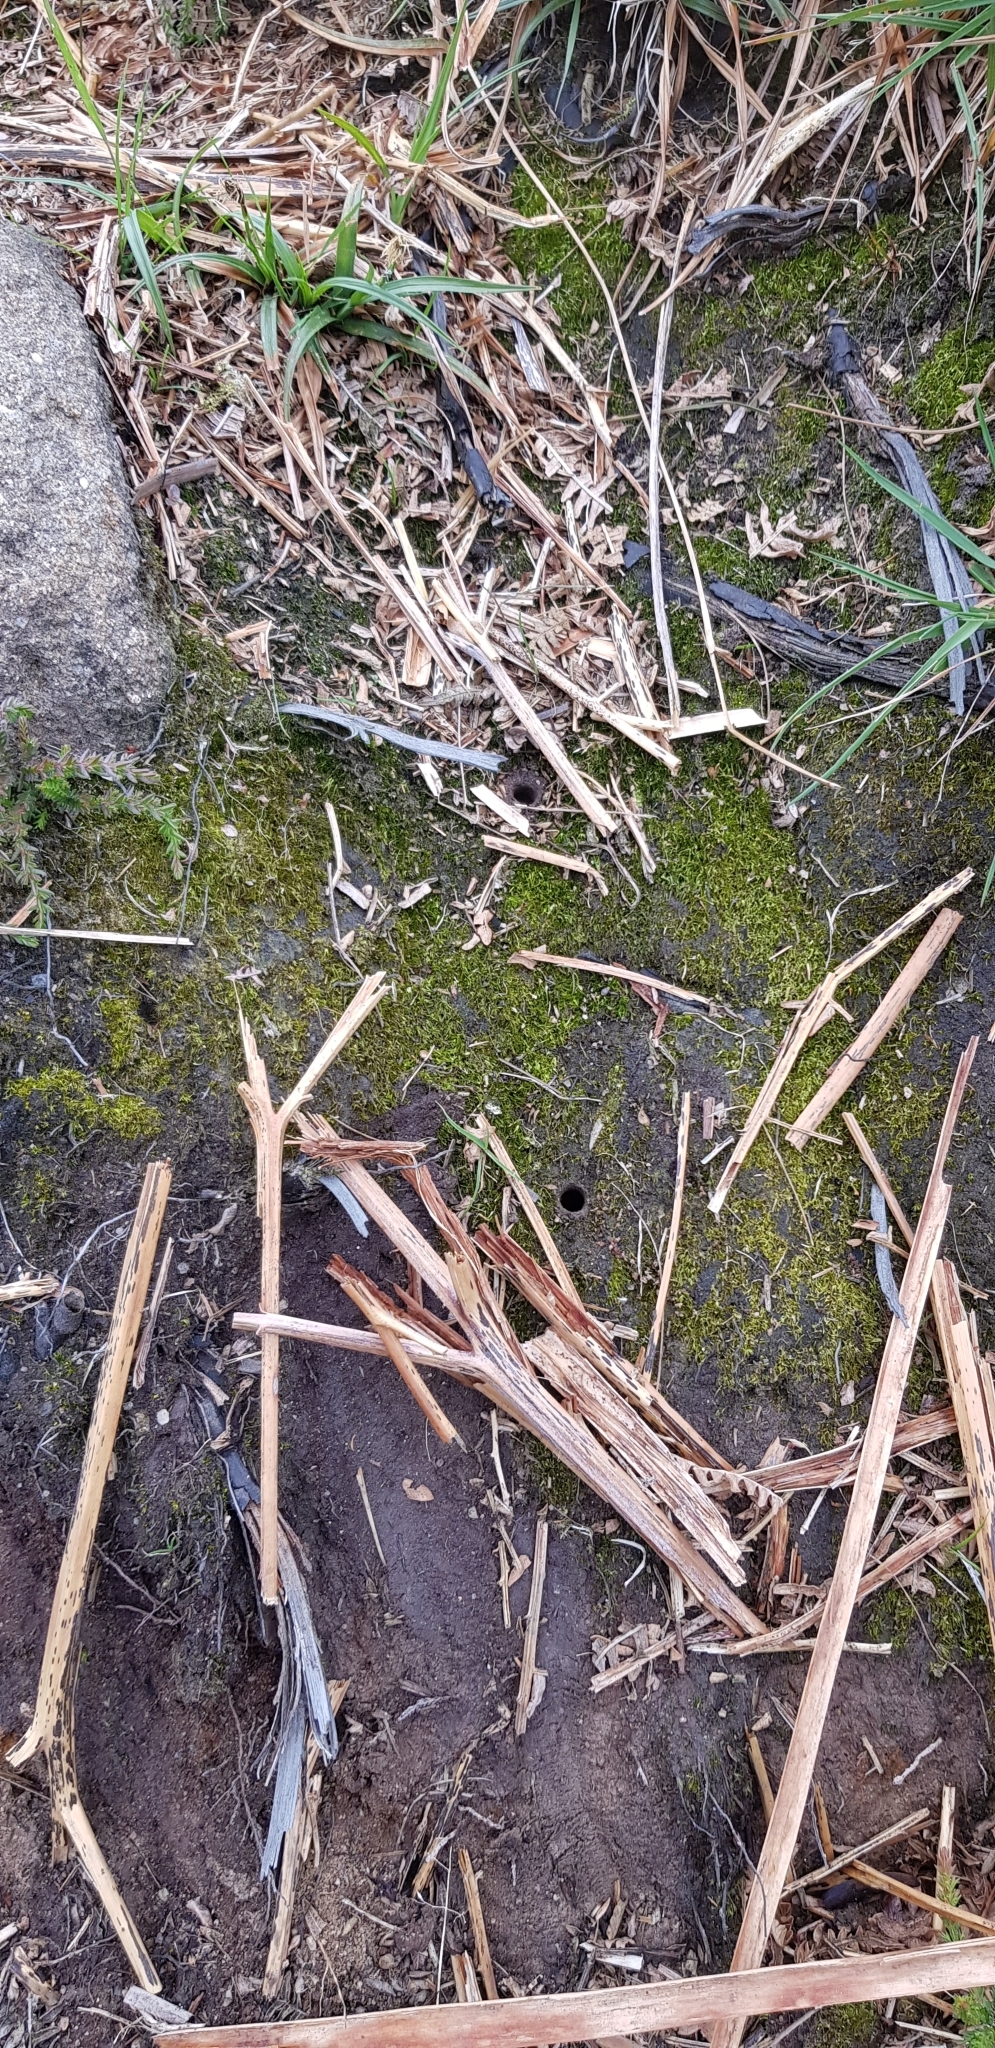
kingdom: Plantae
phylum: Bryophyta
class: Bryopsida
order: Dicranales
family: Leucobryaceae
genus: Campylopus
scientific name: Campylopus pyriformis
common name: Dwarf swan-neck moss
